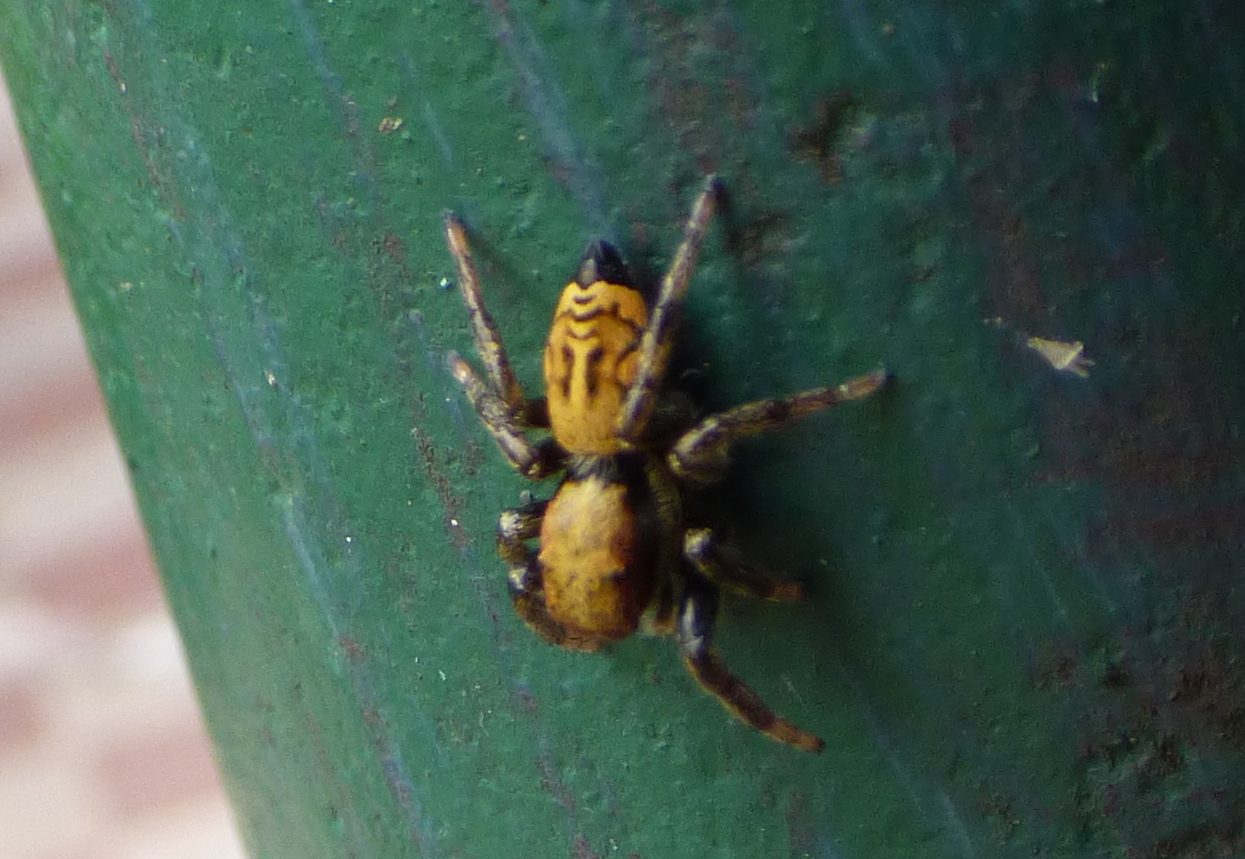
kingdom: Animalia
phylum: Arthropoda
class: Arachnida
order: Araneae
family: Salticidae
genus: Phiale
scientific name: Phiale roburifoliata
